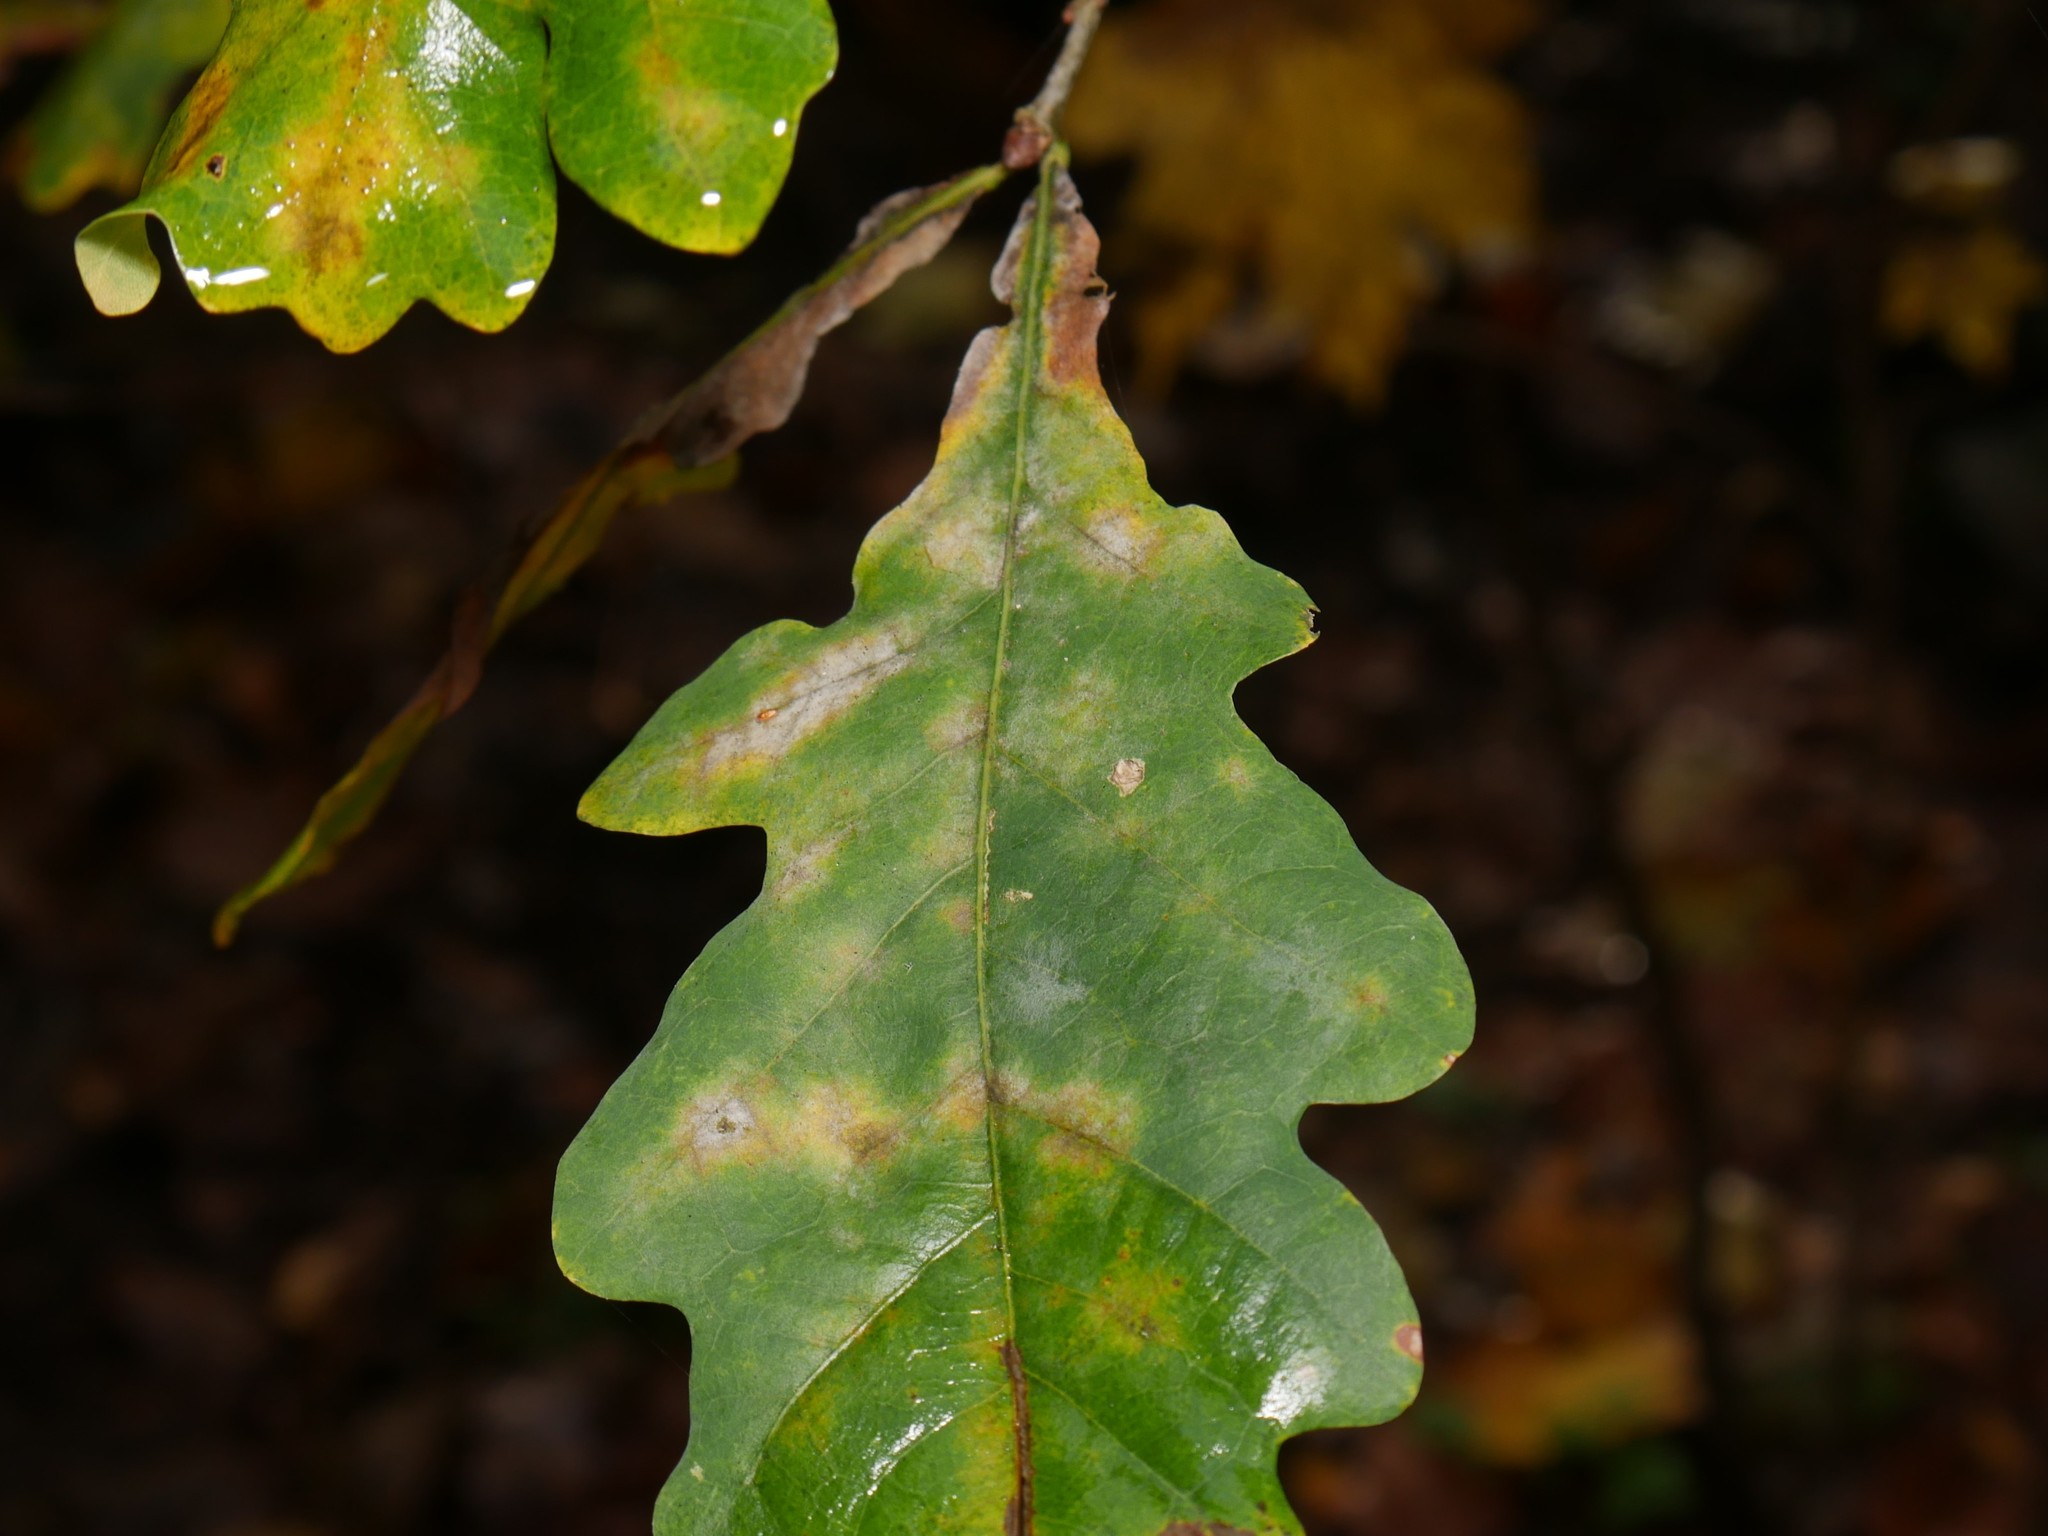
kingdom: Fungi
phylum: Ascomycota
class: Leotiomycetes
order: Helotiales
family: Erysiphaceae
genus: Erysiphe
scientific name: Erysiphe
